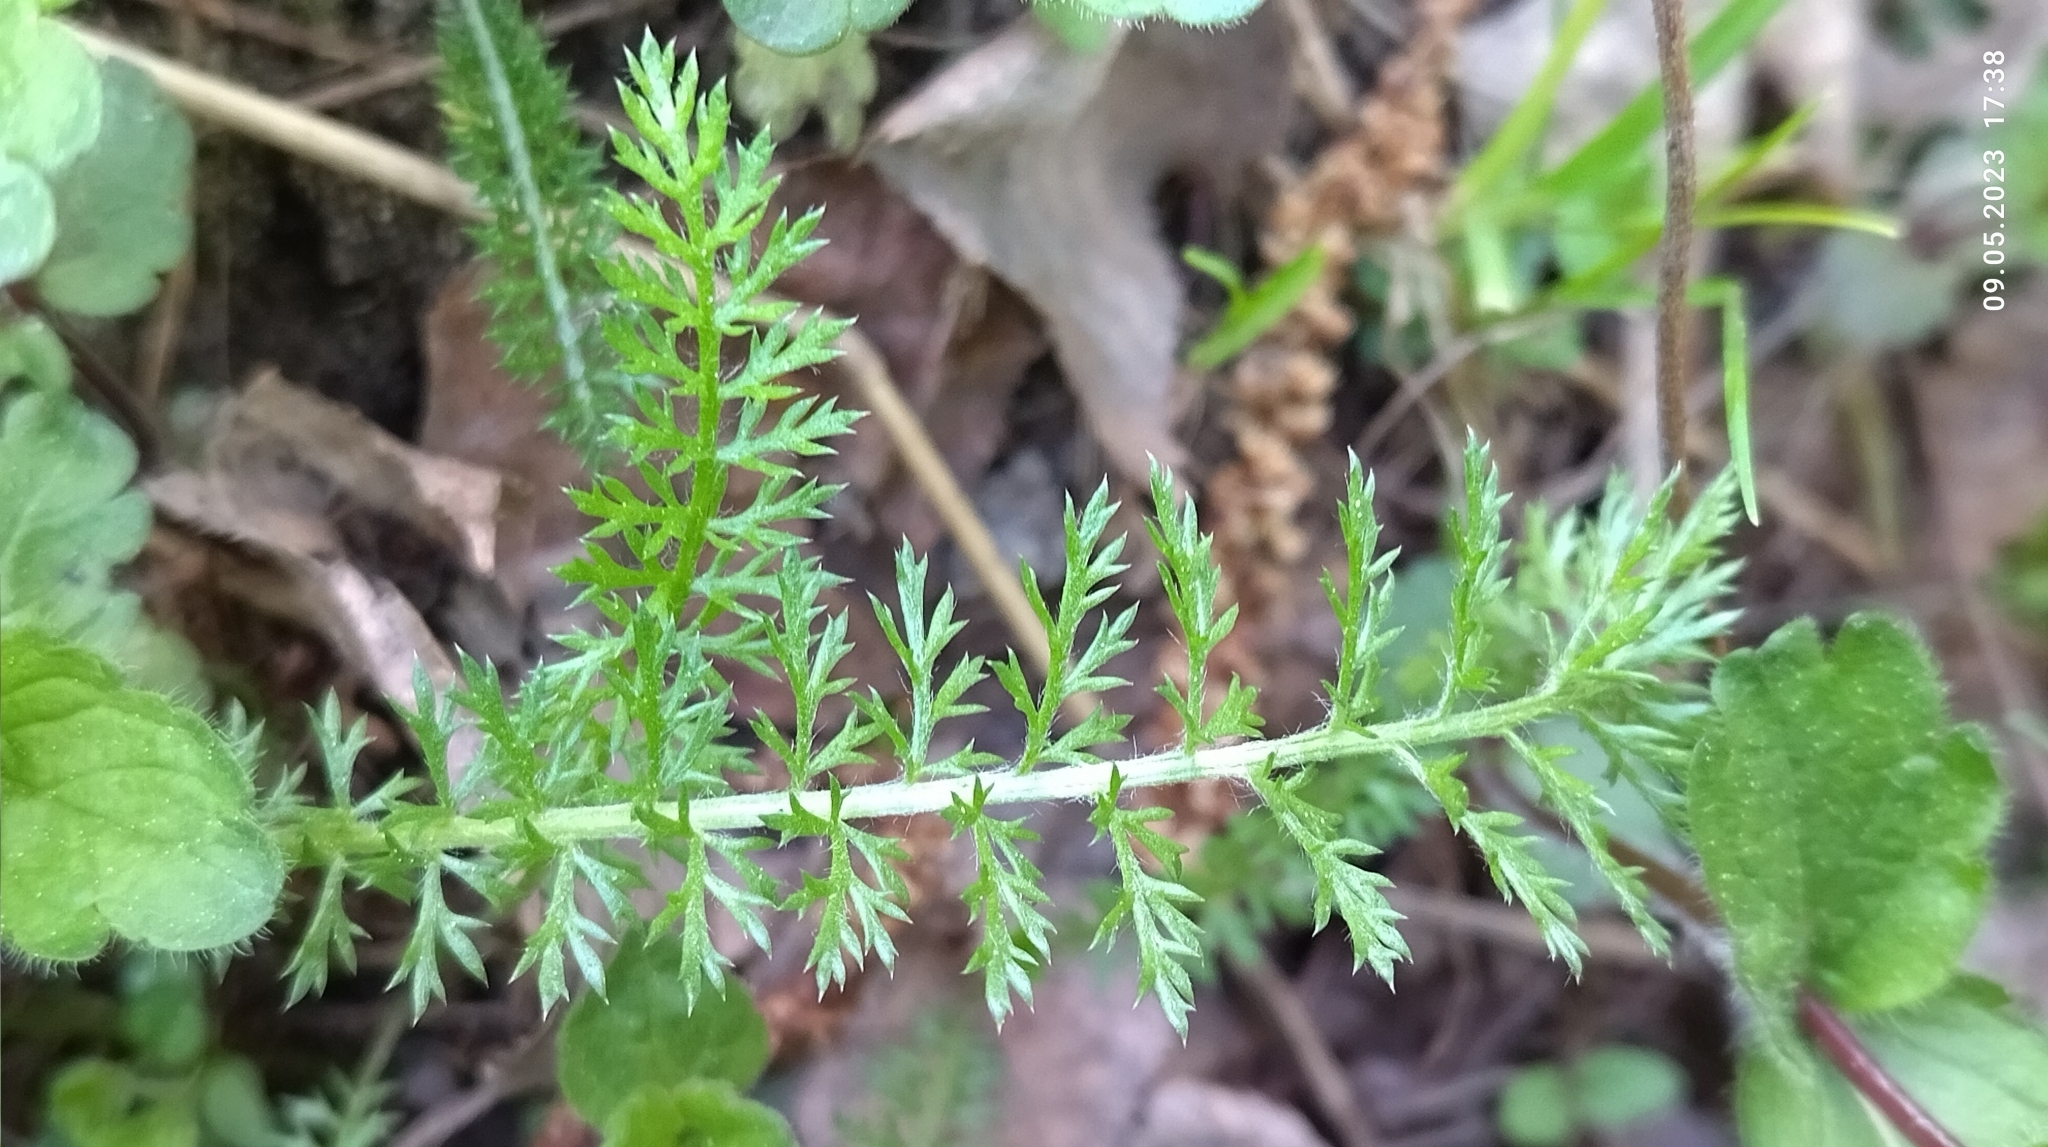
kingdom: Plantae
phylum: Tracheophyta
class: Magnoliopsida
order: Asterales
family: Asteraceae
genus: Achillea
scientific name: Achillea millefolium
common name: Yarrow
